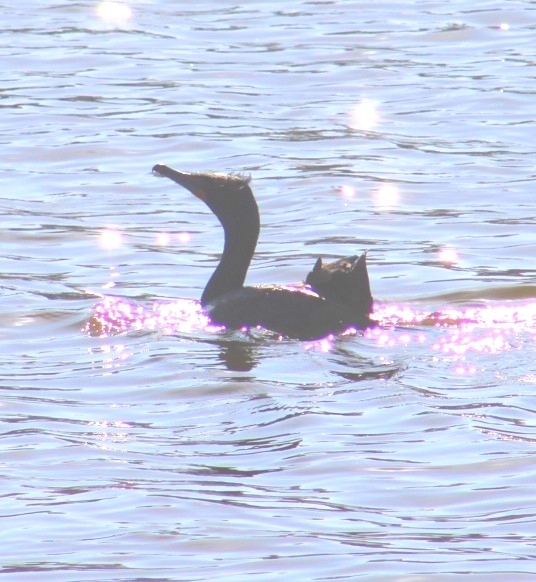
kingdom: Animalia
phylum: Chordata
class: Aves
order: Suliformes
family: Phalacrocoracidae
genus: Phalacrocorax
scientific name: Phalacrocorax auritus
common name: Double-crested cormorant
